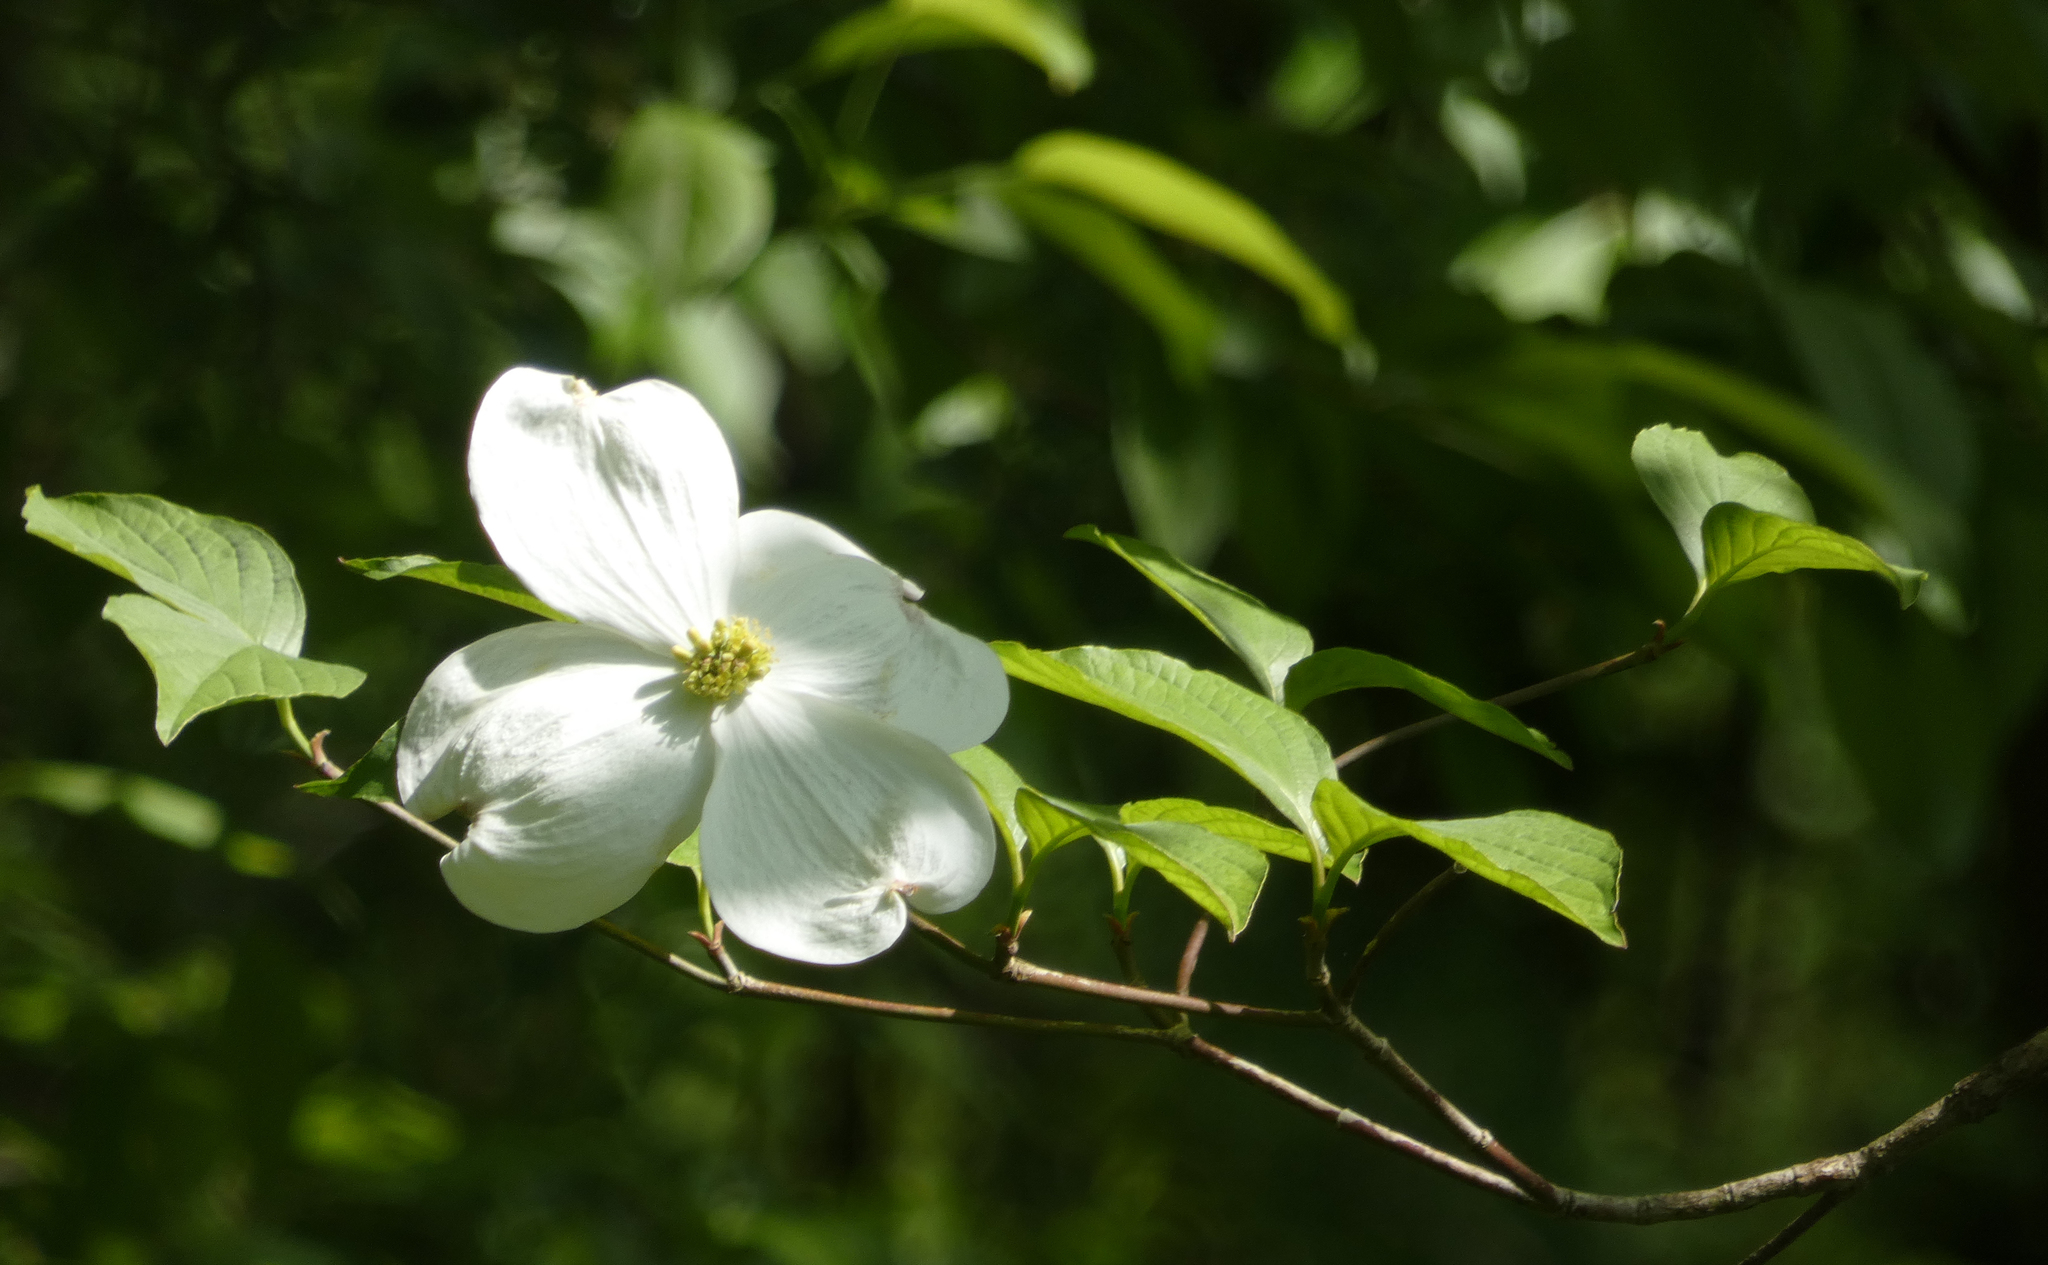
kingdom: Plantae
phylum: Tracheophyta
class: Magnoliopsida
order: Cornales
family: Cornaceae
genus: Cornus
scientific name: Cornus florida
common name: Flowering dogwood
